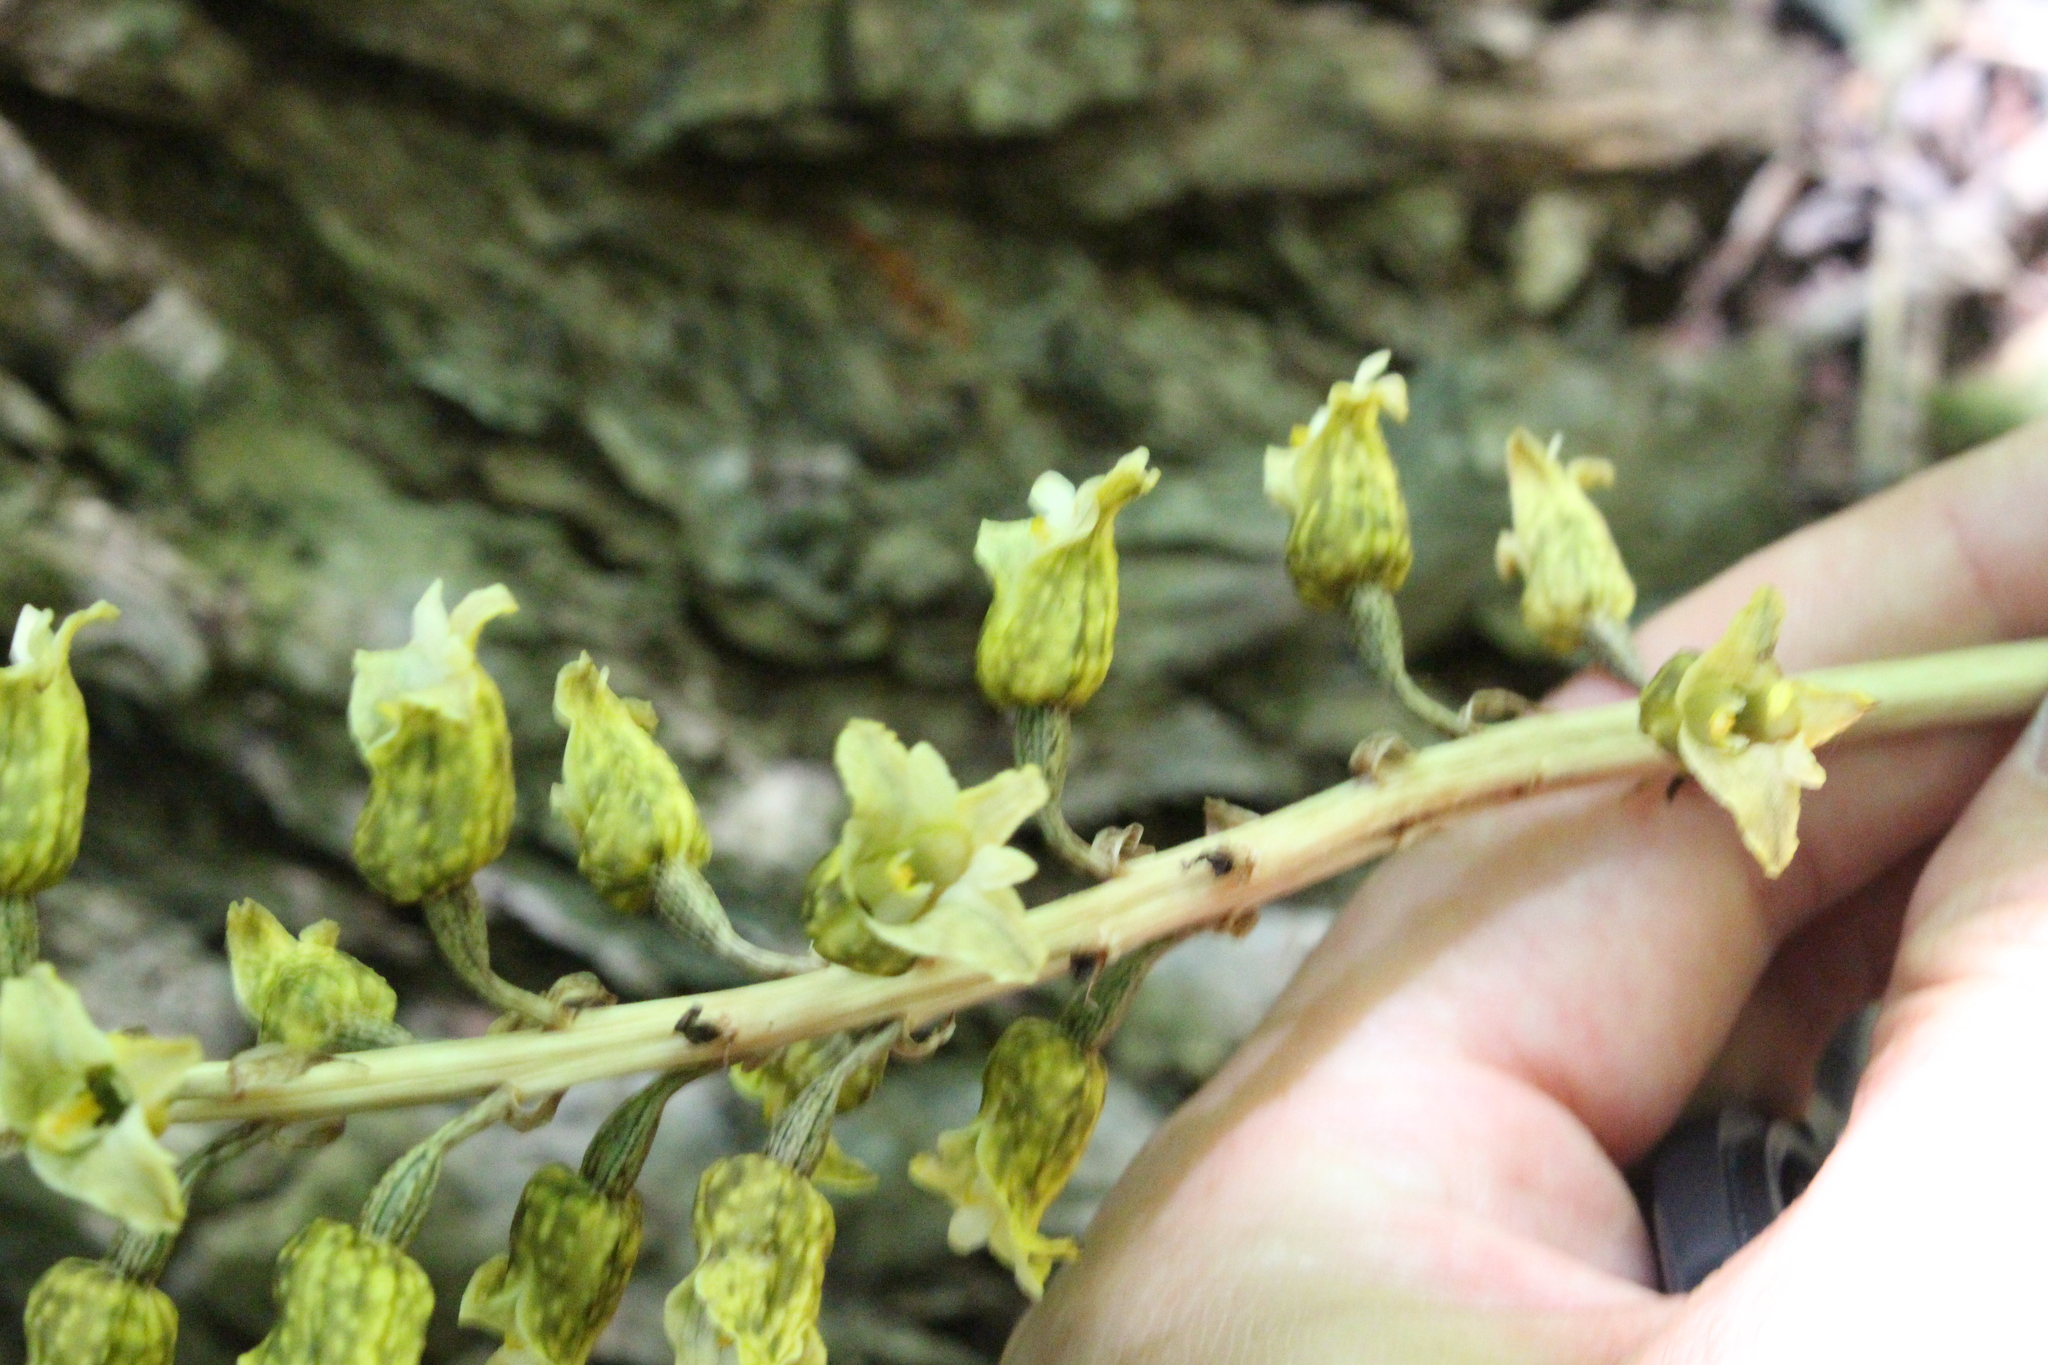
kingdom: Plantae
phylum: Tracheophyta
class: Liliopsida
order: Asparagales
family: Orchidaceae
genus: Gastrodia
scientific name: Gastrodia molloyi
